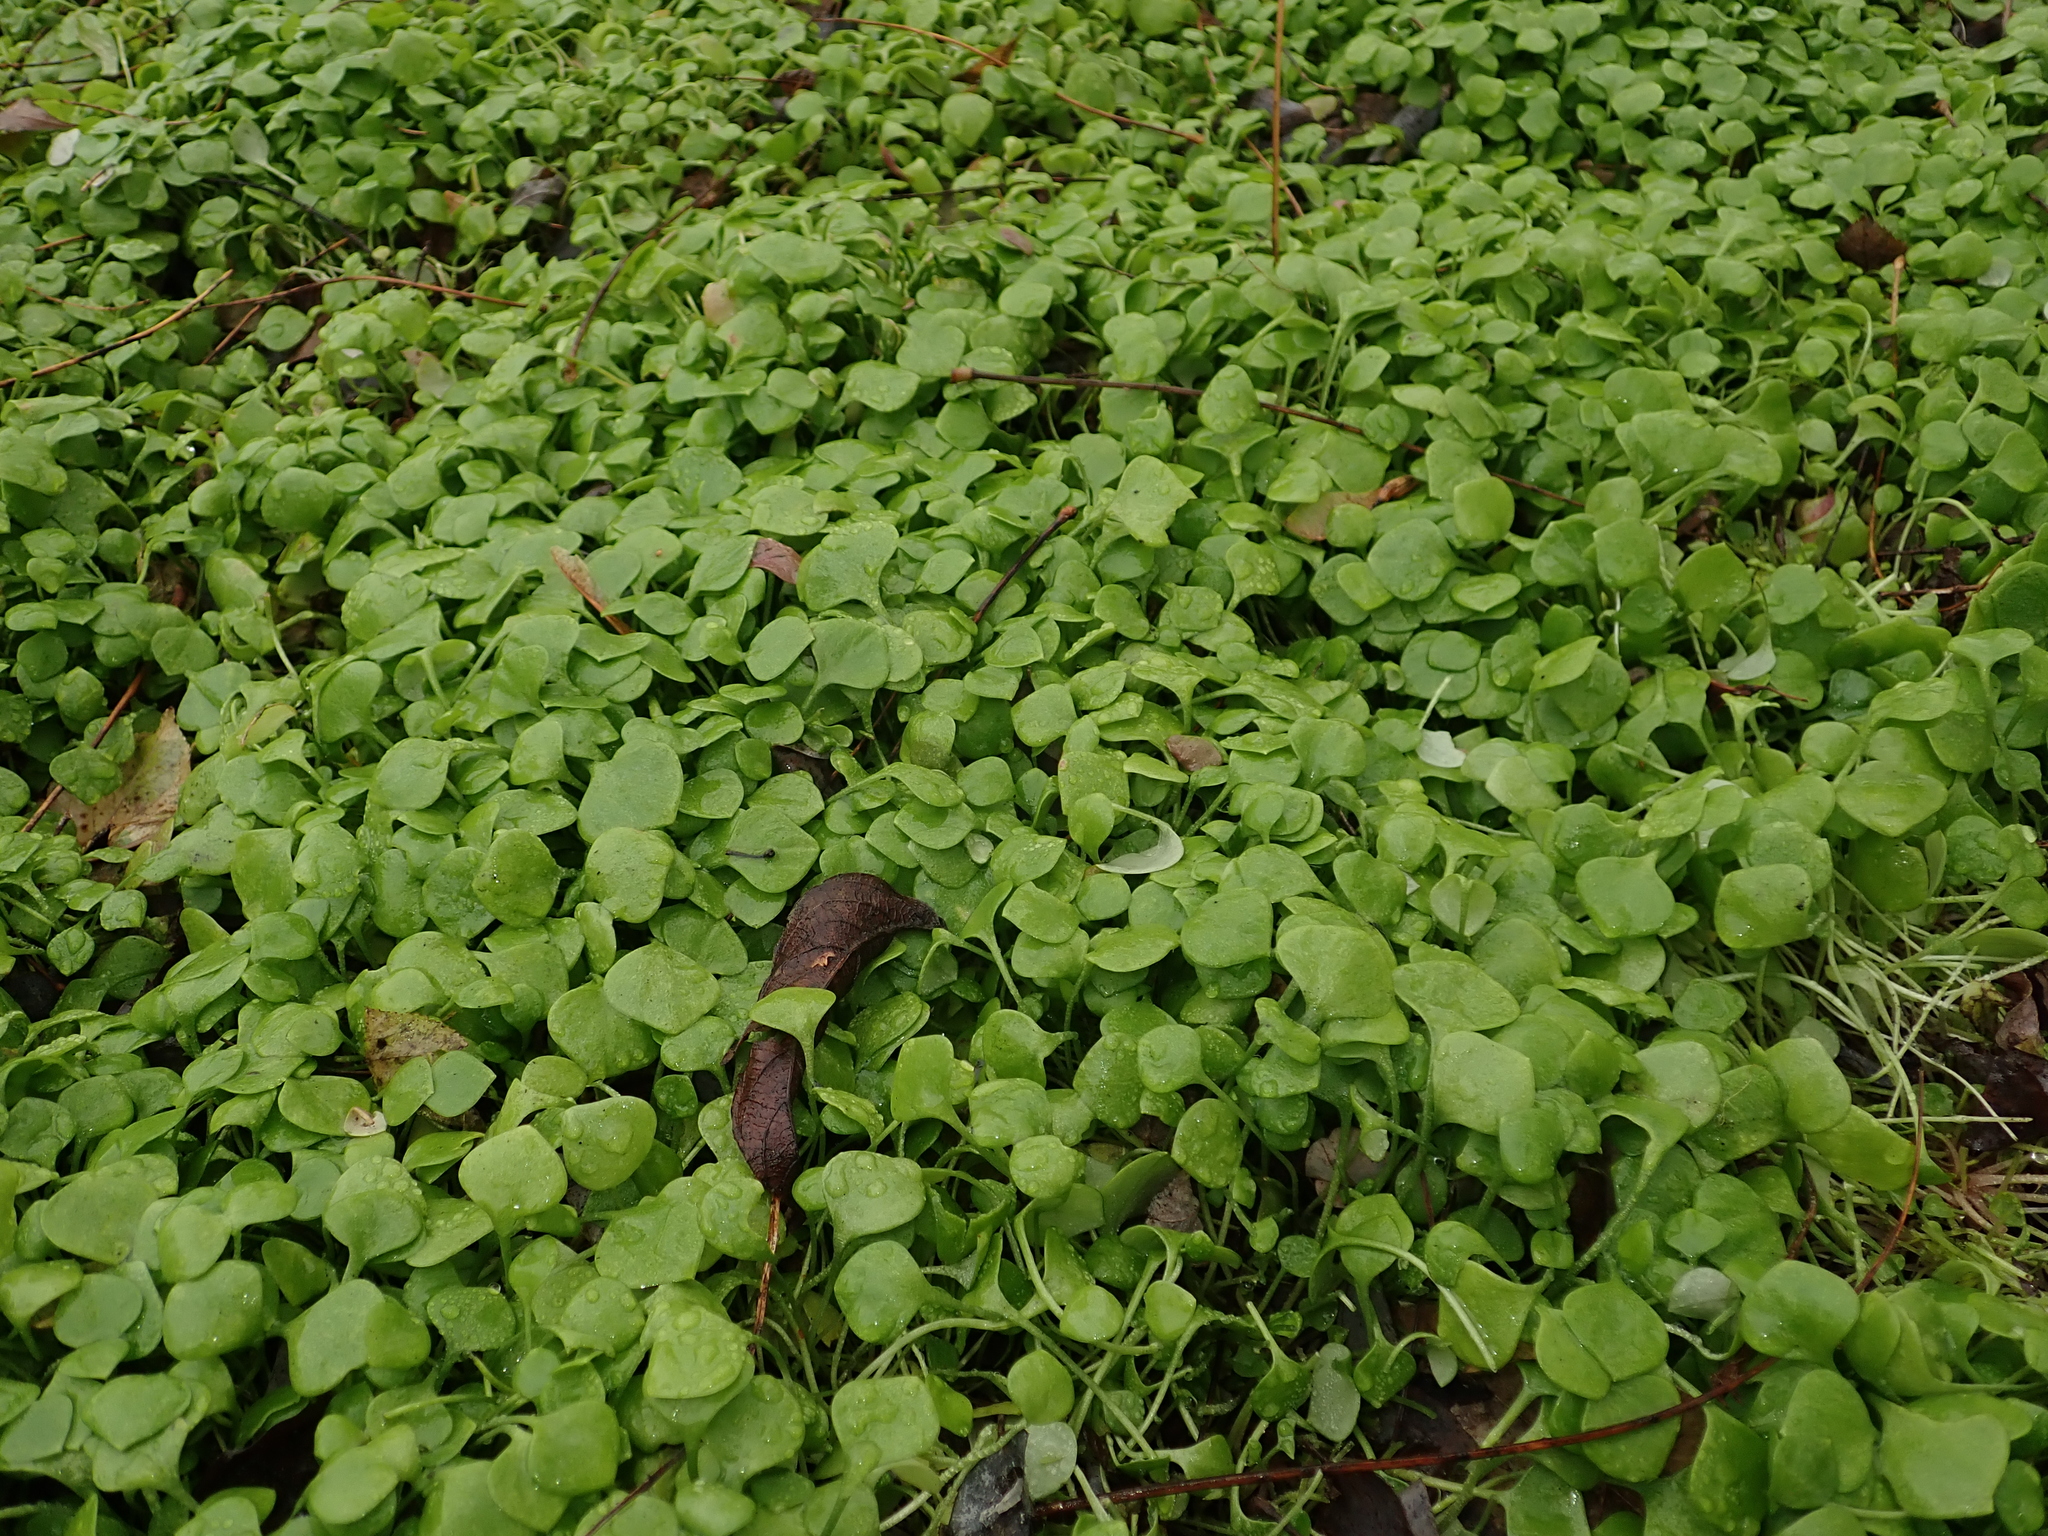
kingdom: Plantae
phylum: Tracheophyta
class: Magnoliopsida
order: Caryophyllales
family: Montiaceae
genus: Claytonia
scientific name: Claytonia perfoliata
